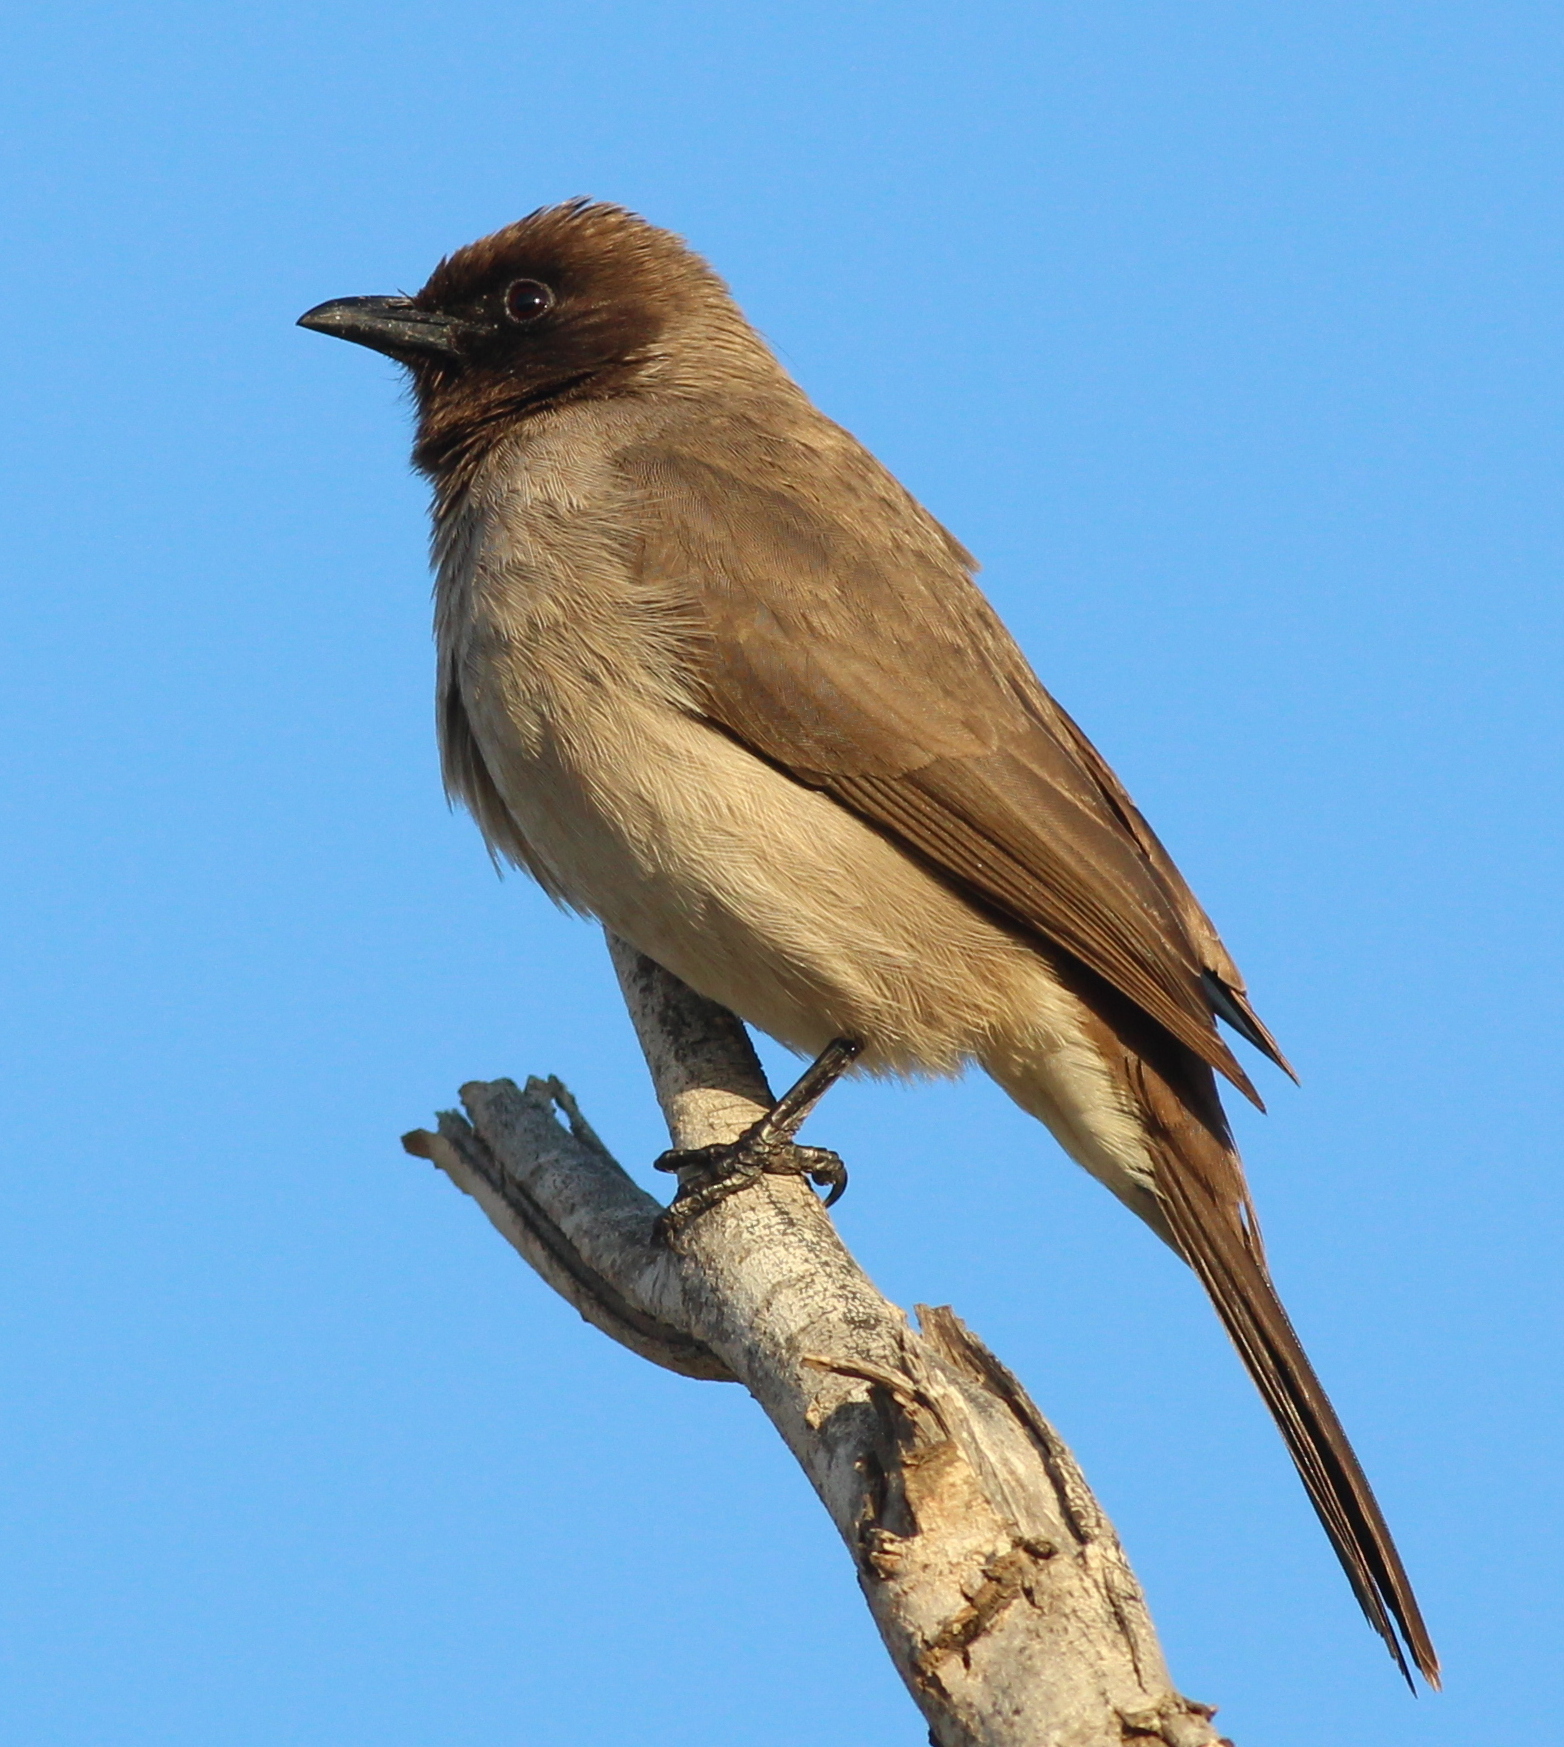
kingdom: Animalia
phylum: Chordata
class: Aves
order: Passeriformes
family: Pycnonotidae
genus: Pycnonotus
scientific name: Pycnonotus barbatus
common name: Common bulbul
